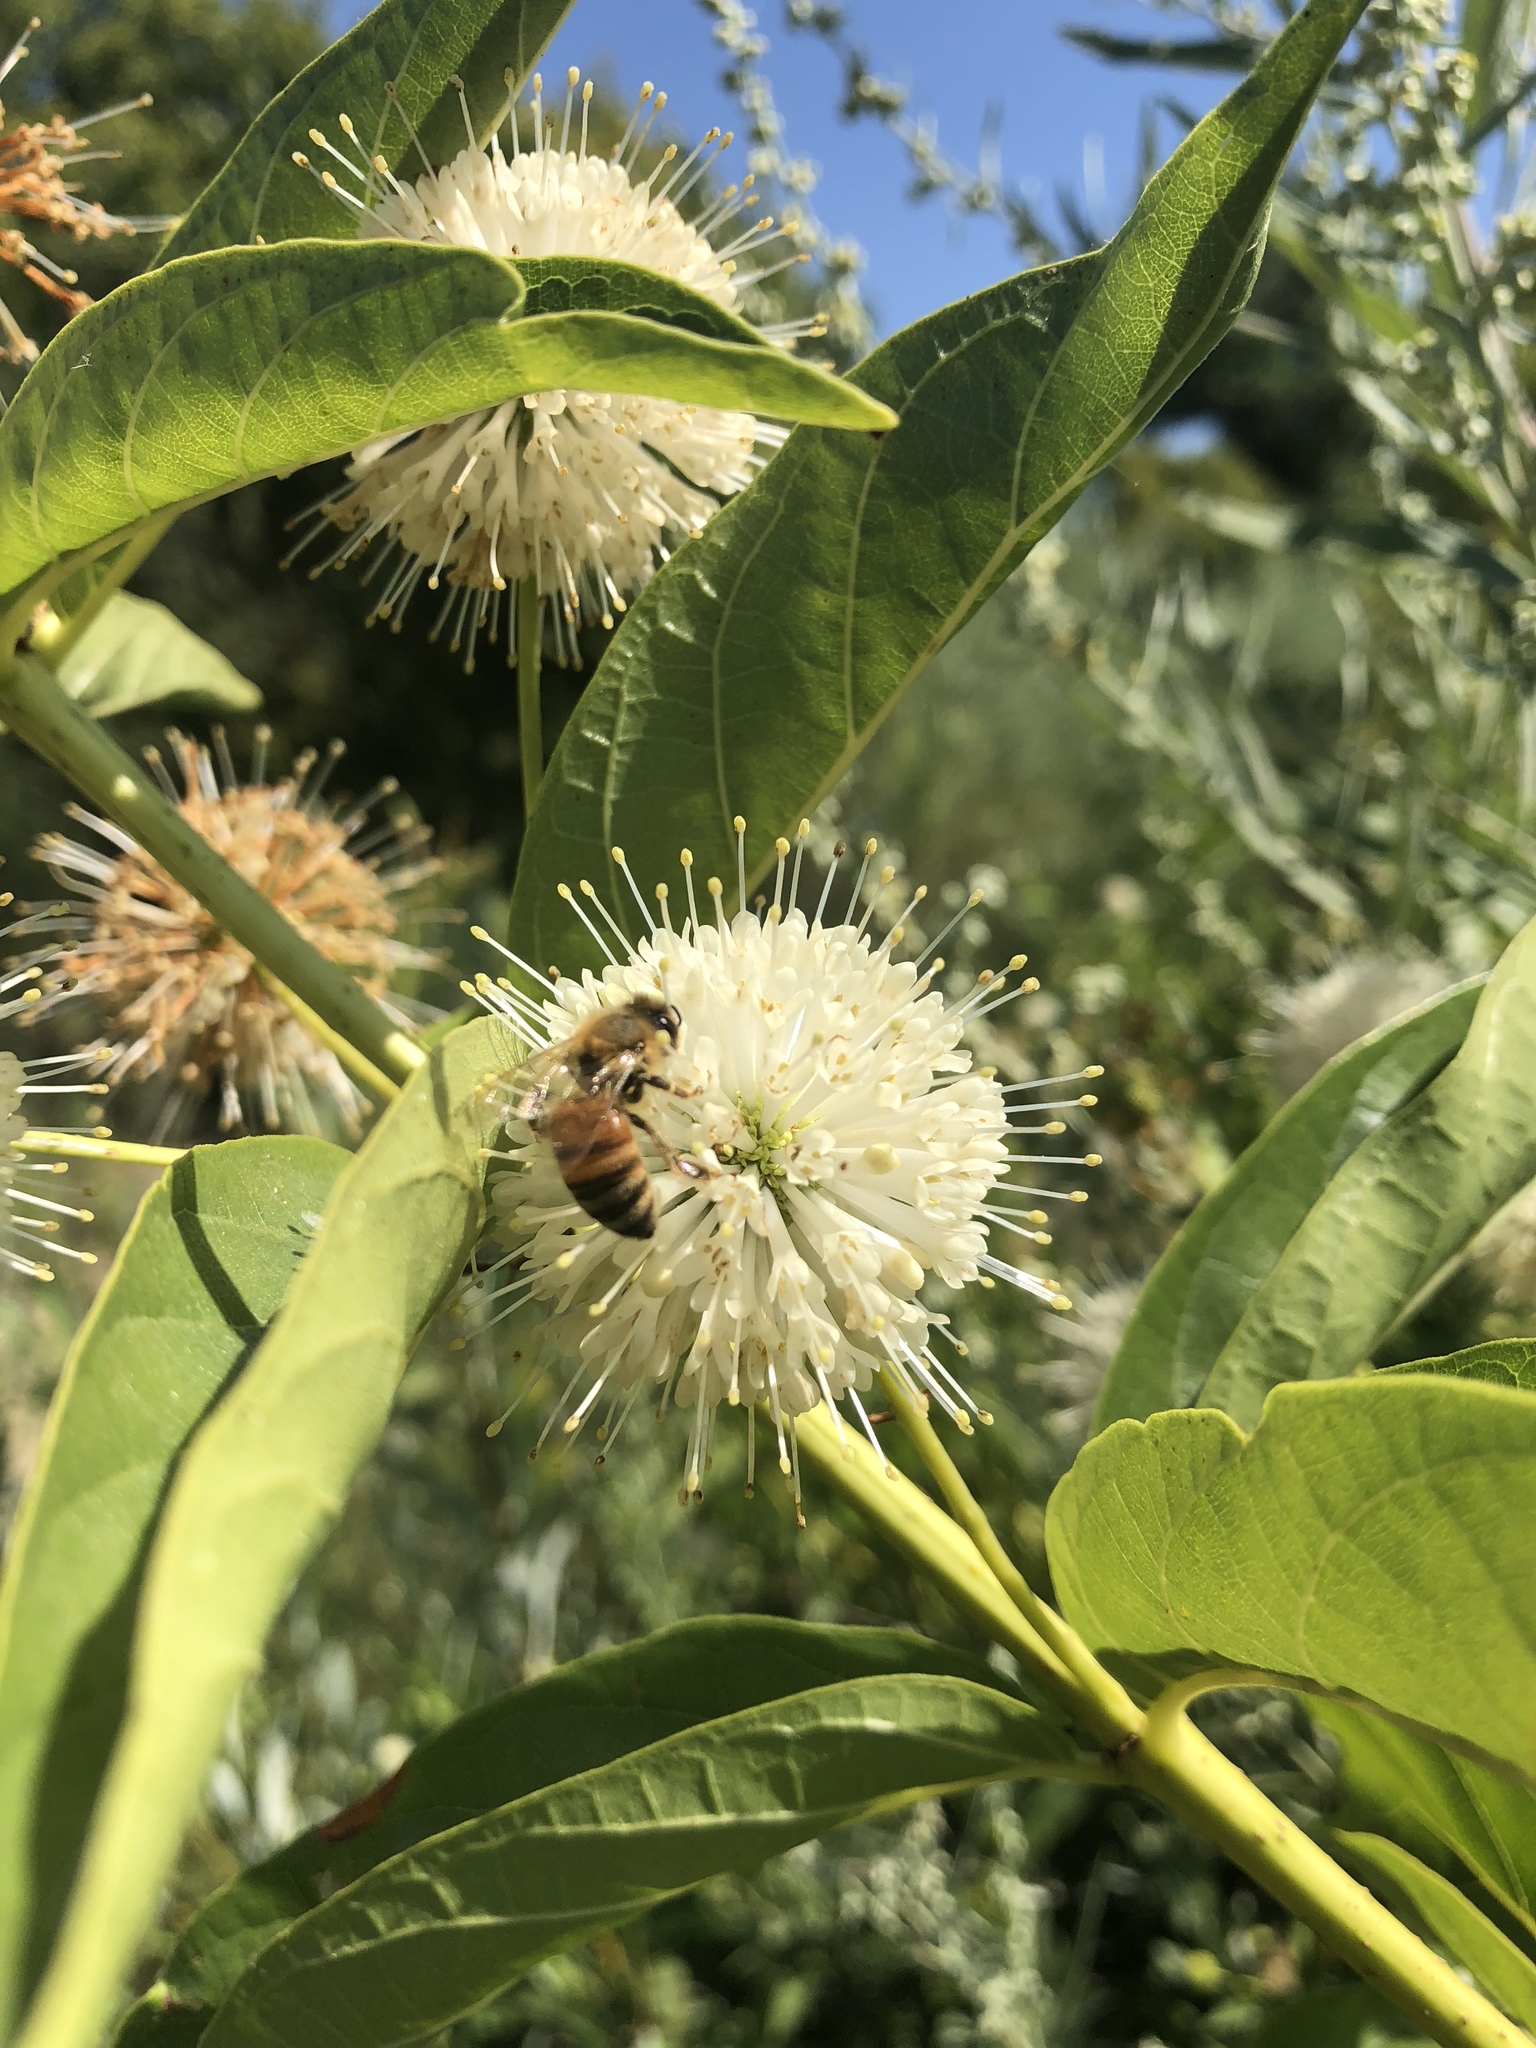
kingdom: Animalia
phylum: Arthropoda
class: Insecta
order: Hymenoptera
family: Apidae
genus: Apis
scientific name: Apis mellifera
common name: Honey bee
